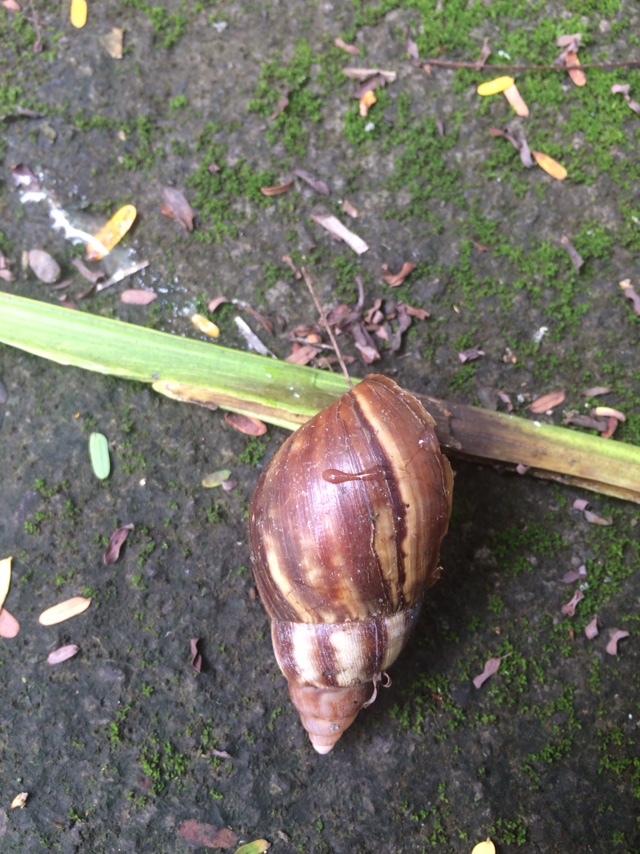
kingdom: Animalia
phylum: Mollusca
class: Gastropoda
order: Stylommatophora
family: Achatinidae
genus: Lissachatina
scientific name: Lissachatina fulica
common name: Giant african snail
